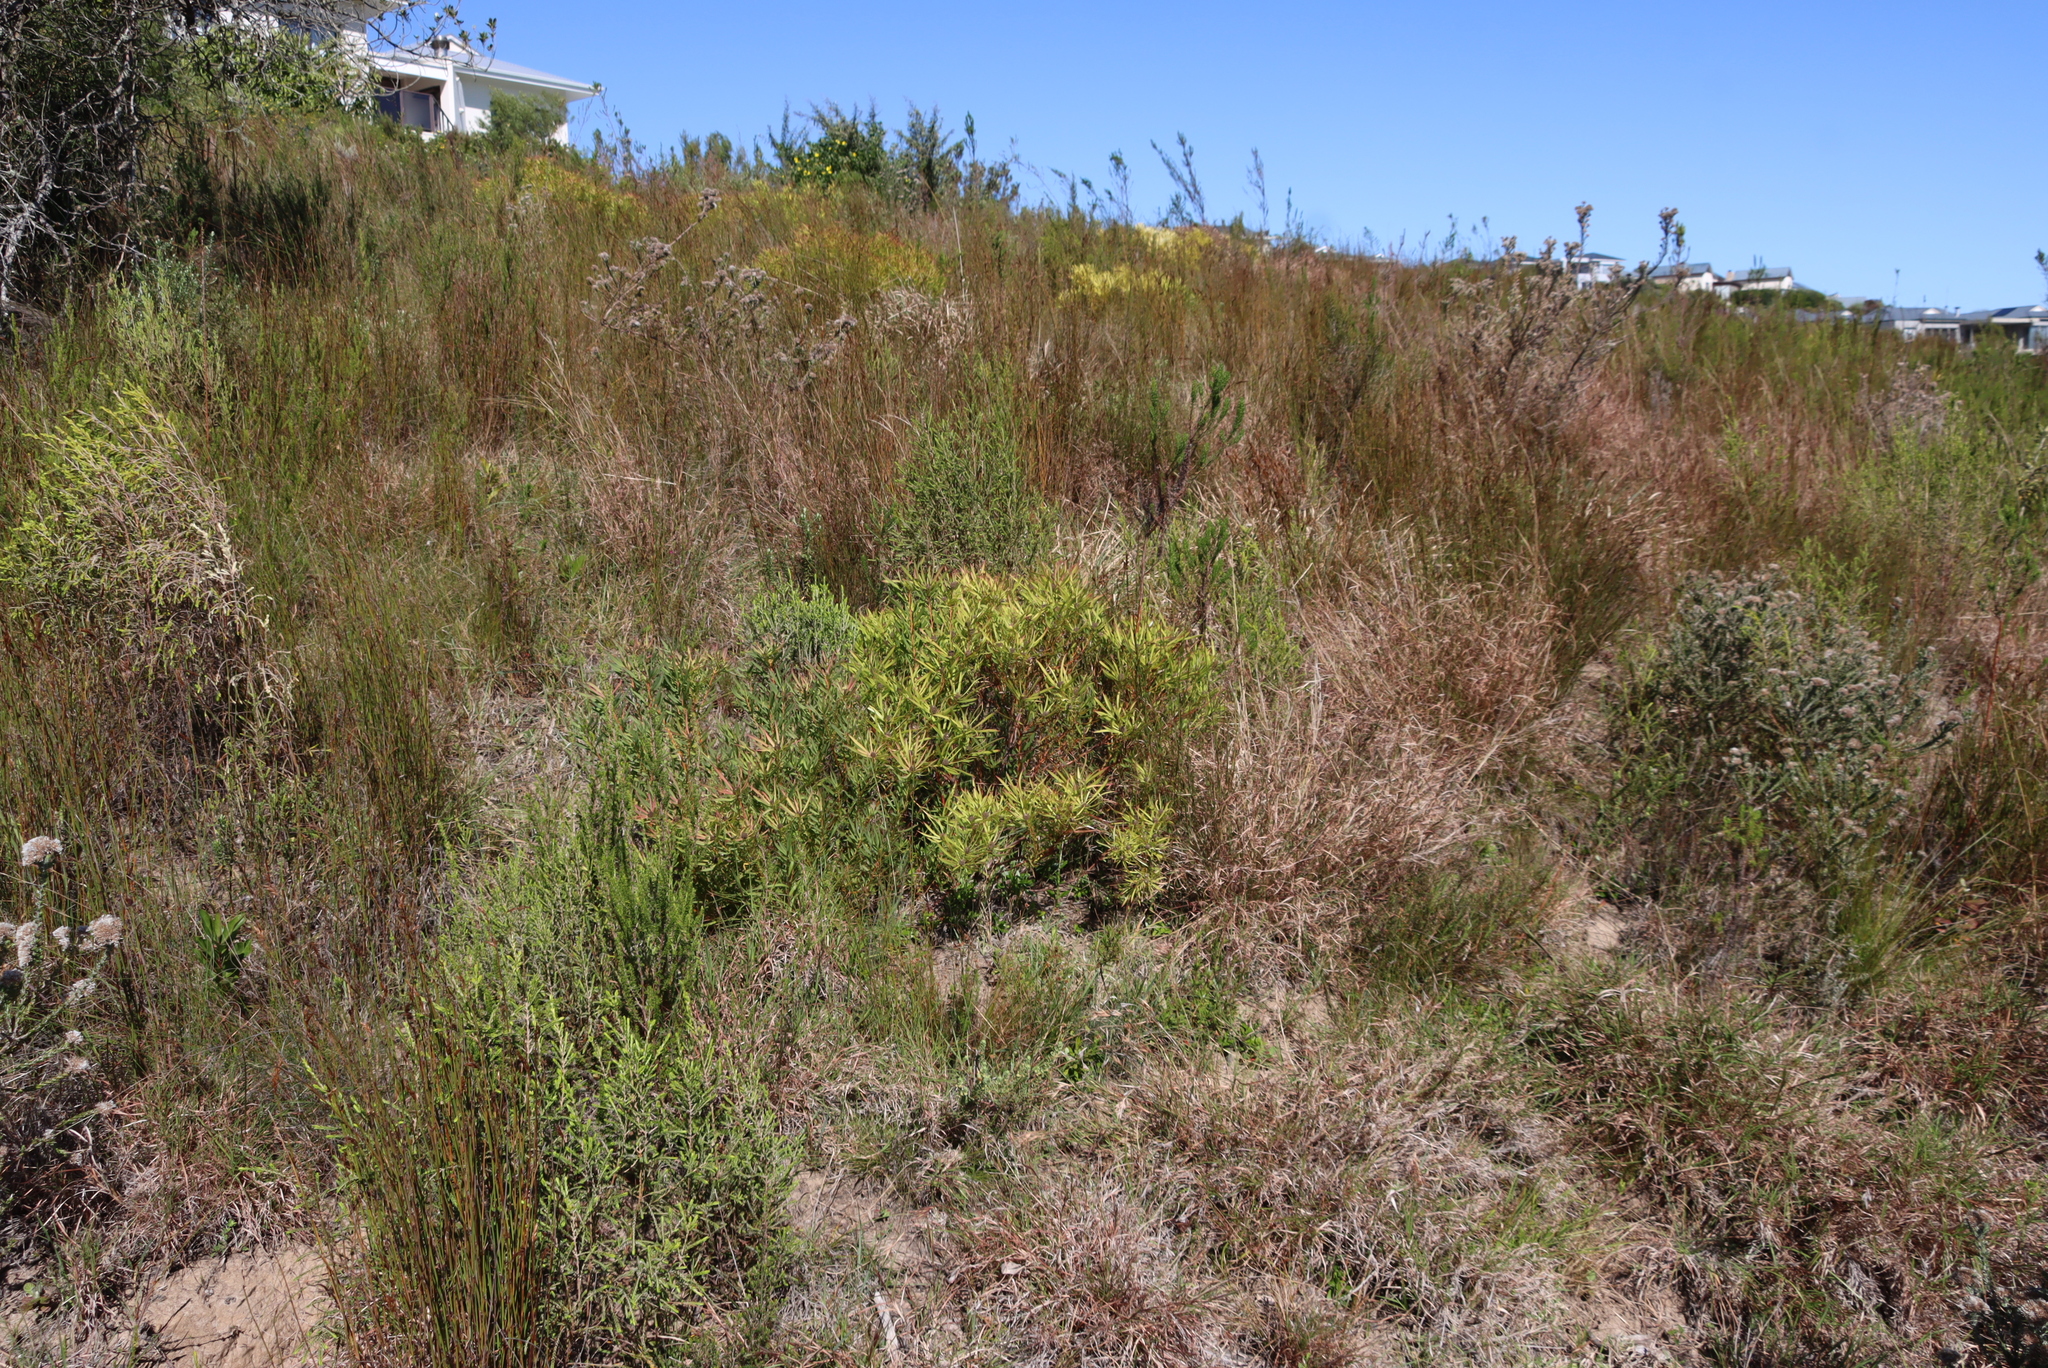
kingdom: Plantae
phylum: Tracheophyta
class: Magnoliopsida
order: Proteales
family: Proteaceae
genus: Leucadendron
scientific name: Leucadendron salignum
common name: Common sunshine conebush
